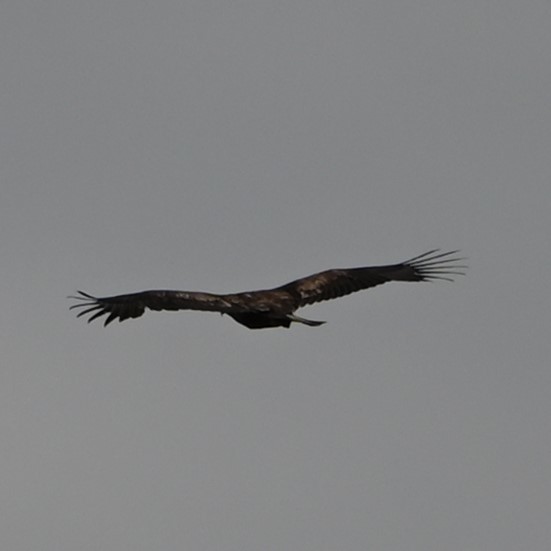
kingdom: Animalia
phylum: Chordata
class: Aves
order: Accipitriformes
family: Accipitridae
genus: Haliaeetus
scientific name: Haliaeetus leucocephalus
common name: Bald eagle
